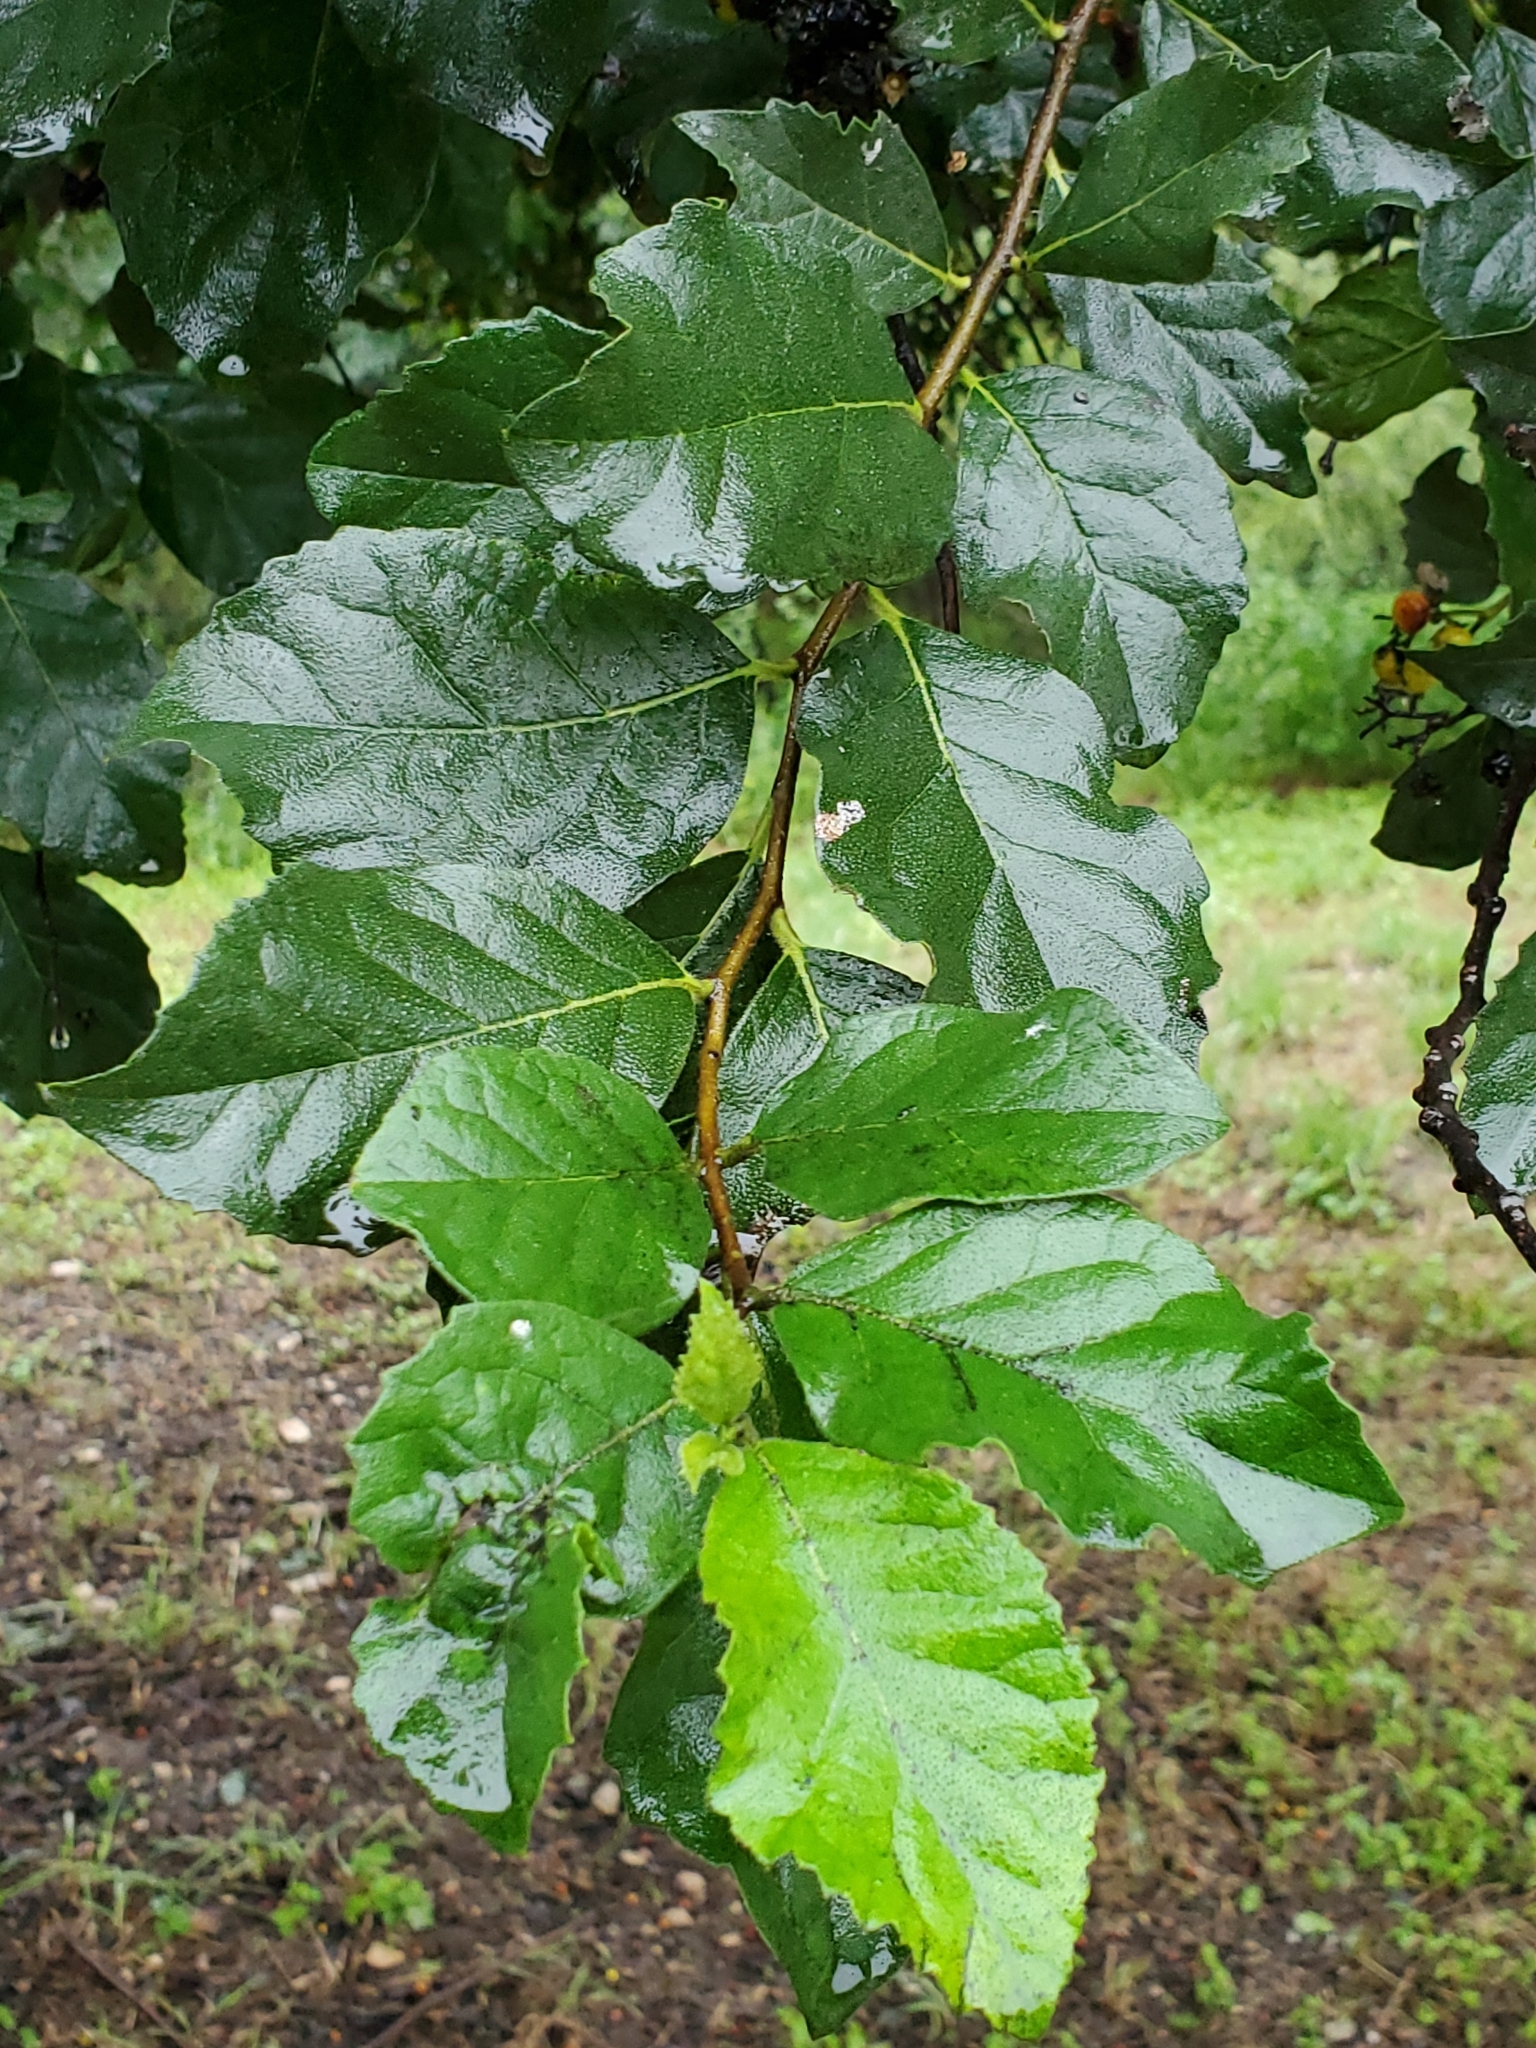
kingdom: Plantae
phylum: Tracheophyta
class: Magnoliopsida
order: Boraginales
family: Ehretiaceae
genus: Ehretia
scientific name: Ehretia anacua
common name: Sugarberry
